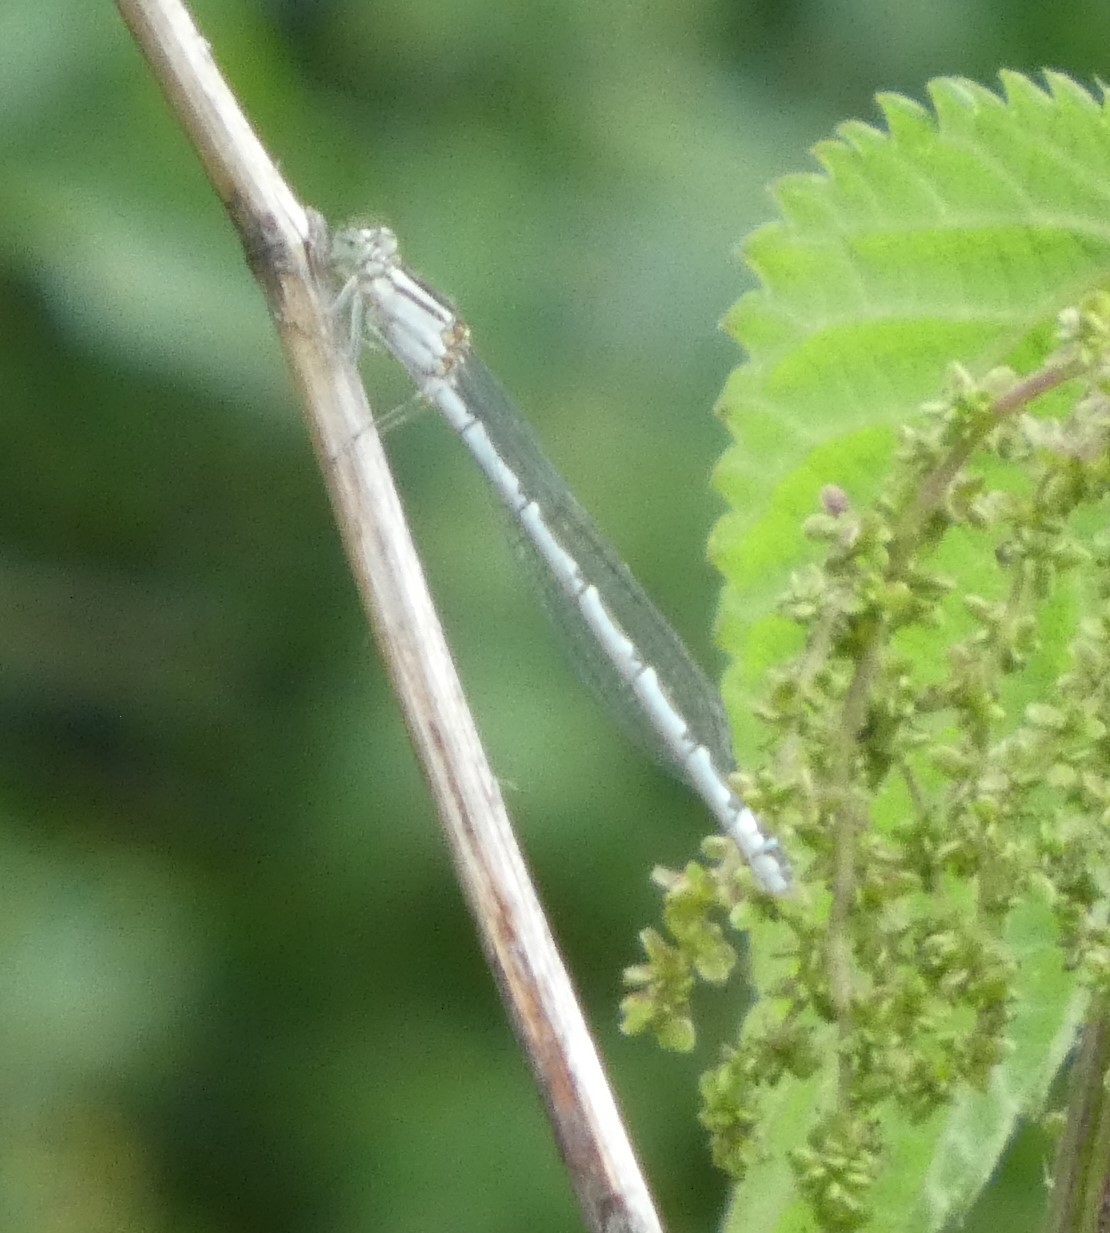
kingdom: Animalia
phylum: Arthropoda
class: Insecta
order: Odonata
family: Coenagrionidae
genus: Enallagma
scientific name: Enallagma cyathigerum
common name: Common blue damselfly
